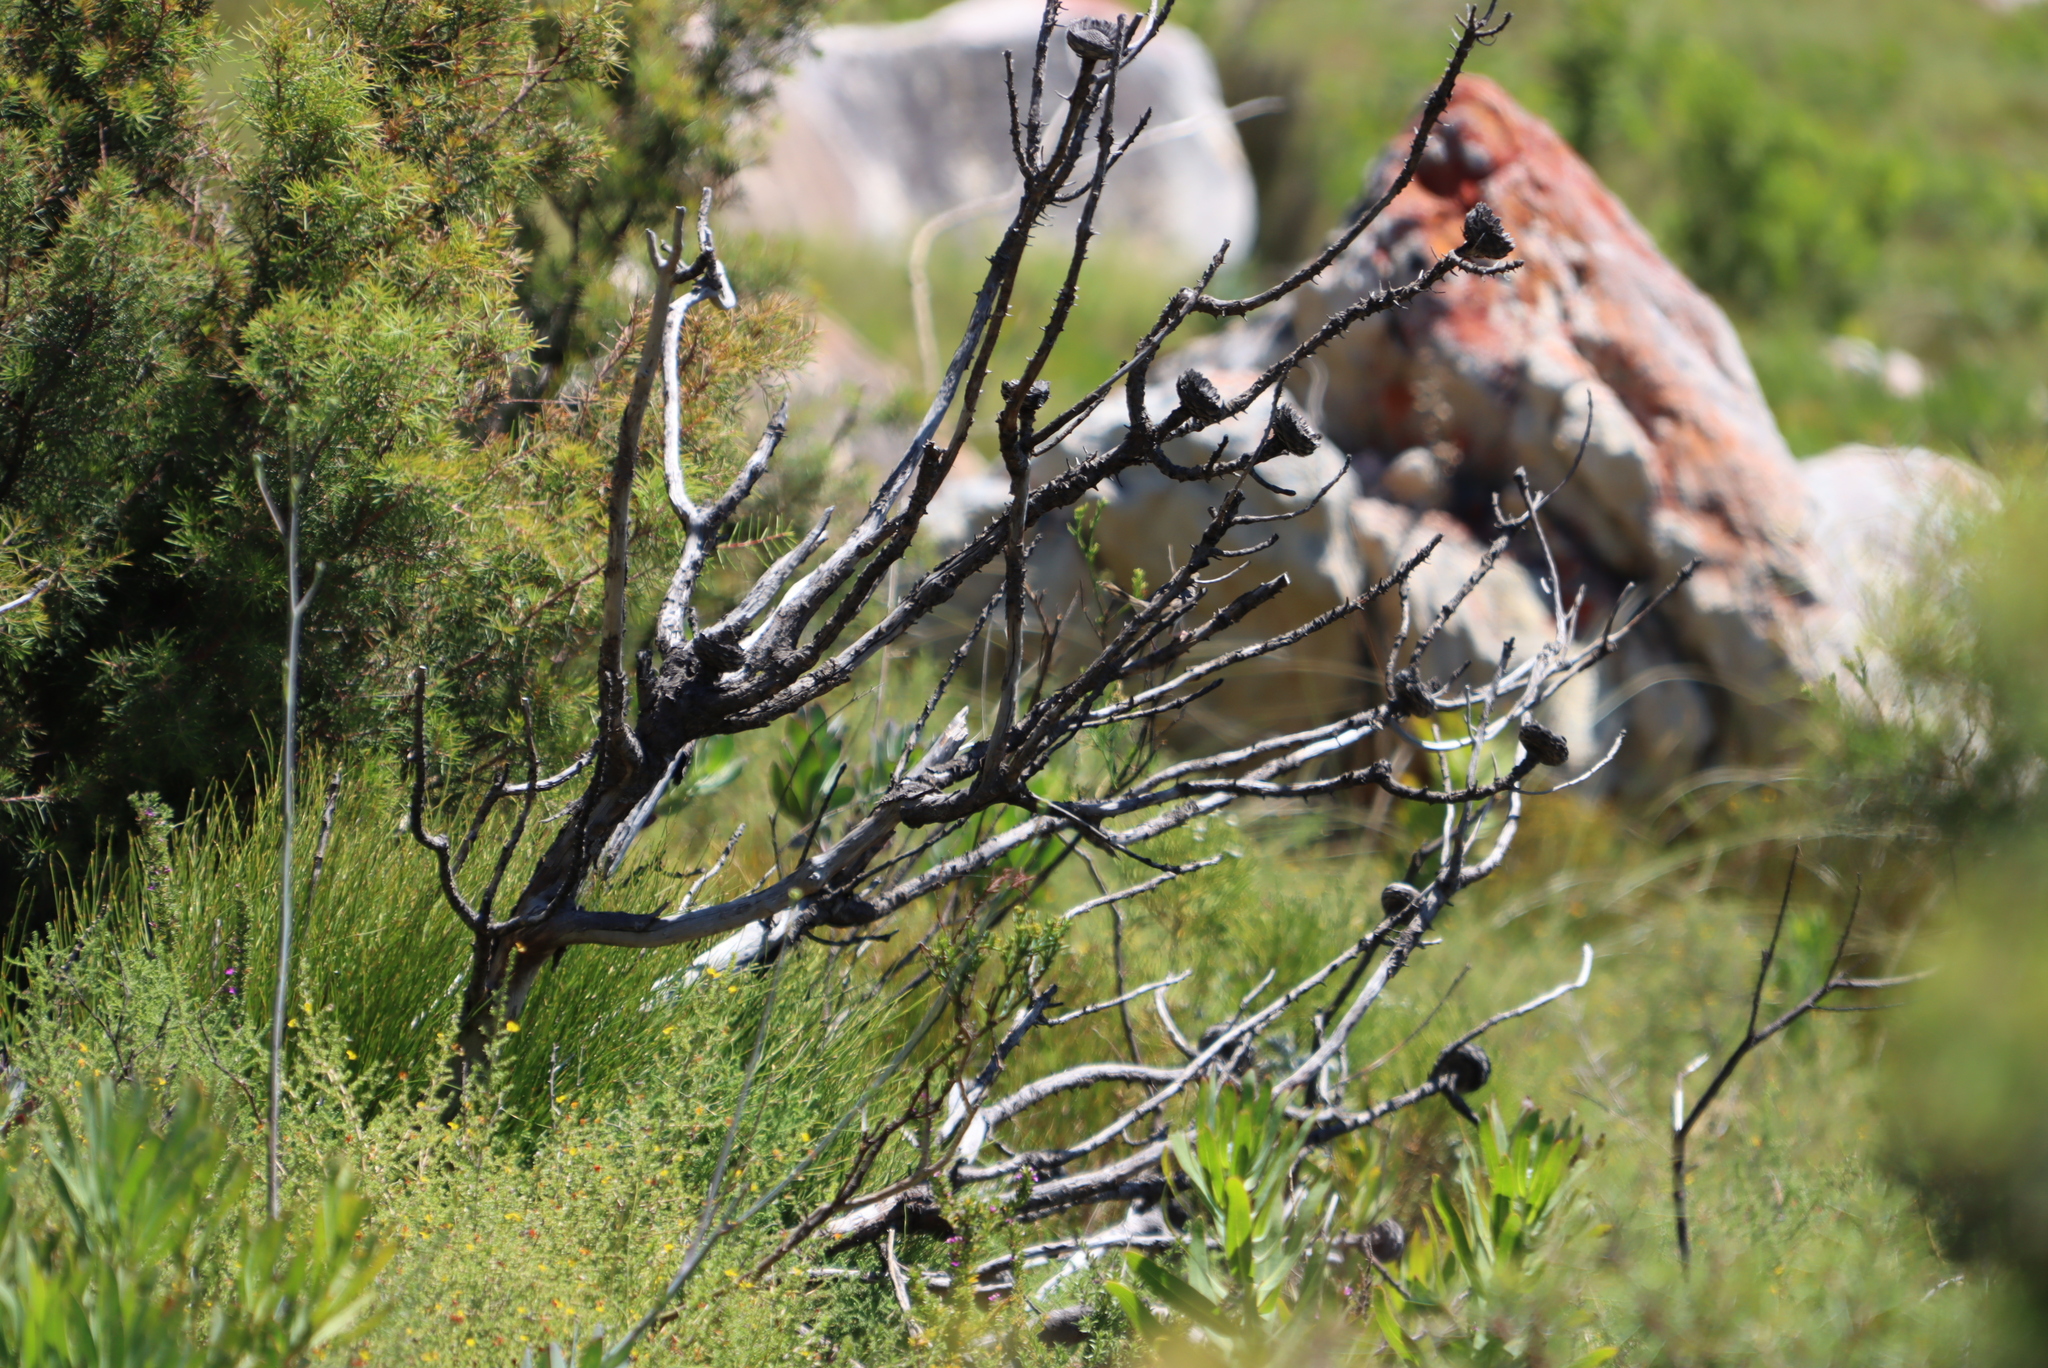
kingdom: Plantae
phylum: Tracheophyta
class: Magnoliopsida
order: Proteales
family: Proteaceae
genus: Protea
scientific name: Protea laurifolia
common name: Grey-leaf sugarbsh
